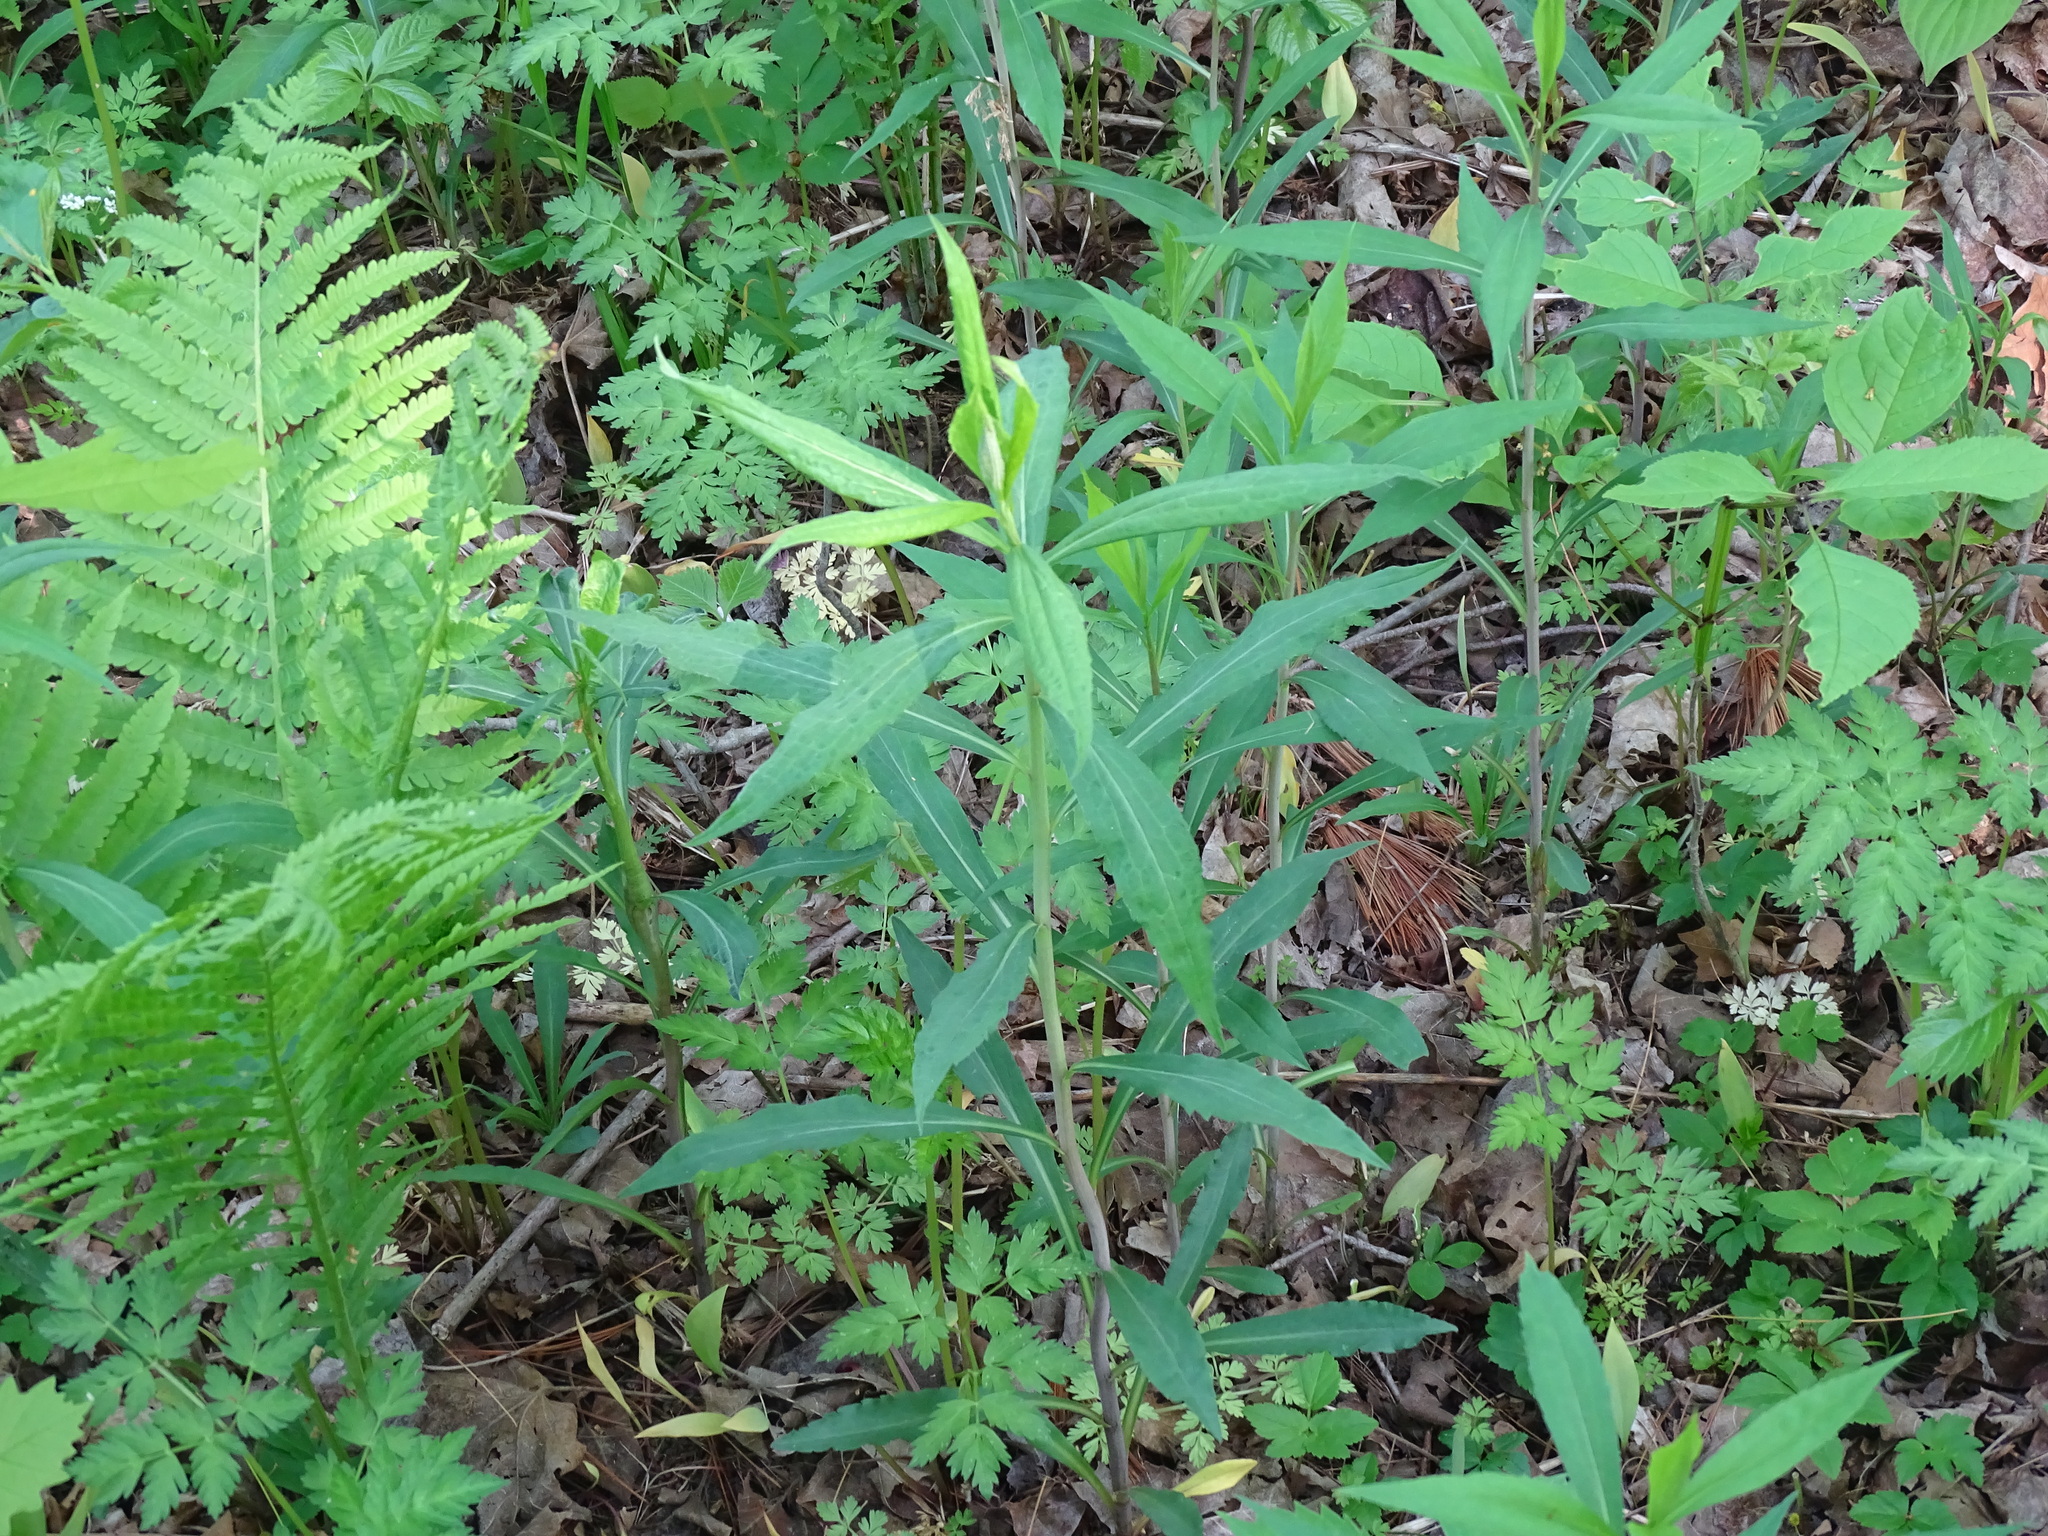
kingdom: Plantae
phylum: Tracheophyta
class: Magnoliopsida
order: Asterales
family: Asteraceae
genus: Solidago
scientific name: Solidago gigantea
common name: Giant goldenrod
